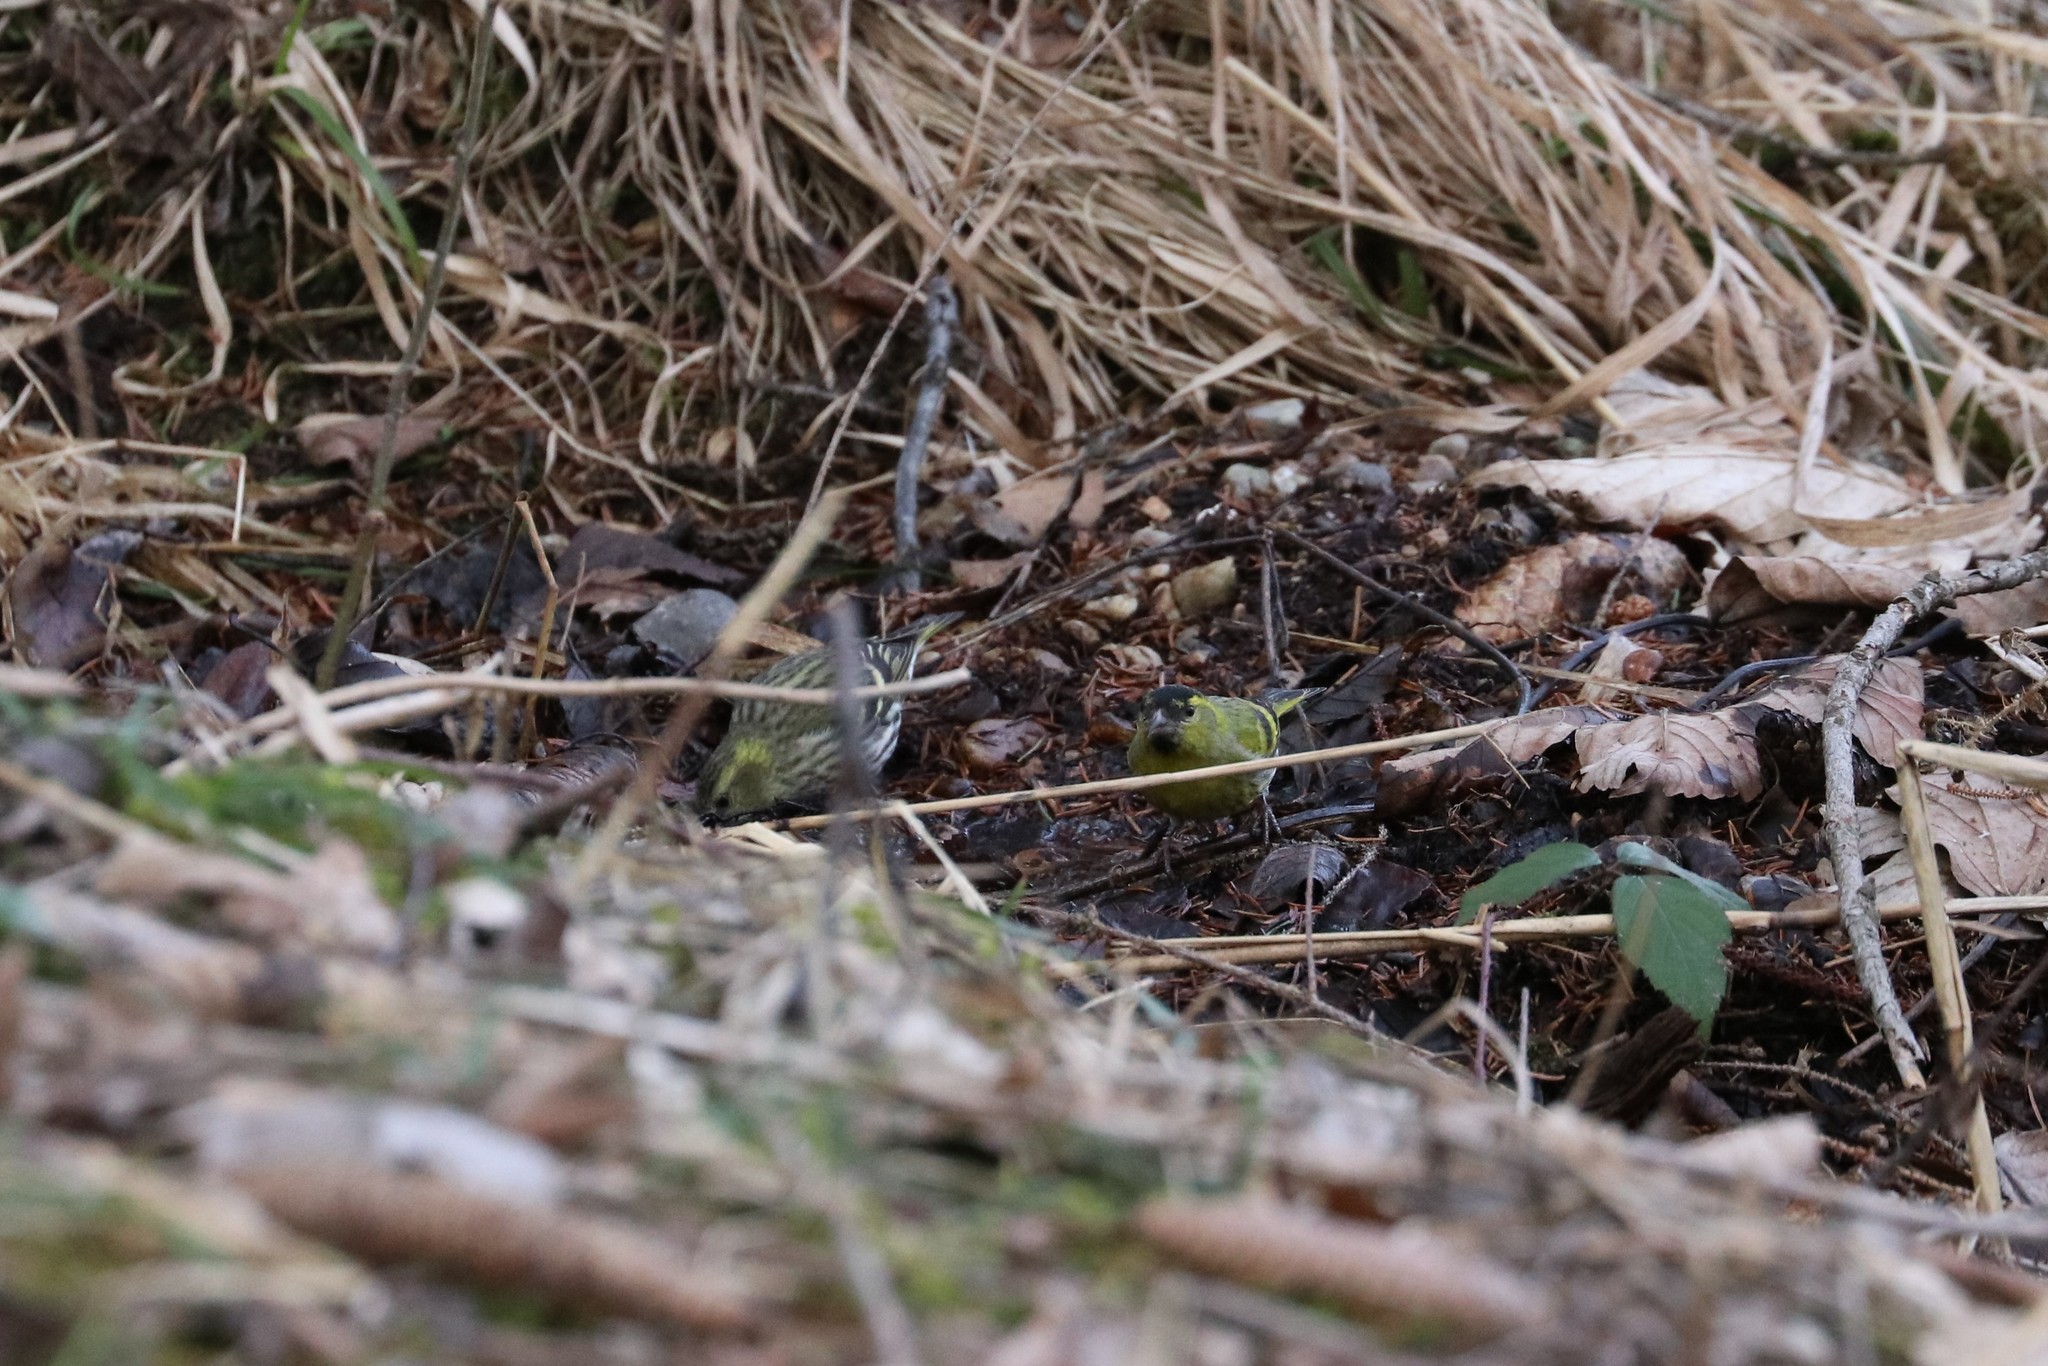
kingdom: Animalia
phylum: Chordata
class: Aves
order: Passeriformes
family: Fringillidae
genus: Spinus
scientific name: Spinus spinus
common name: Eurasian siskin
